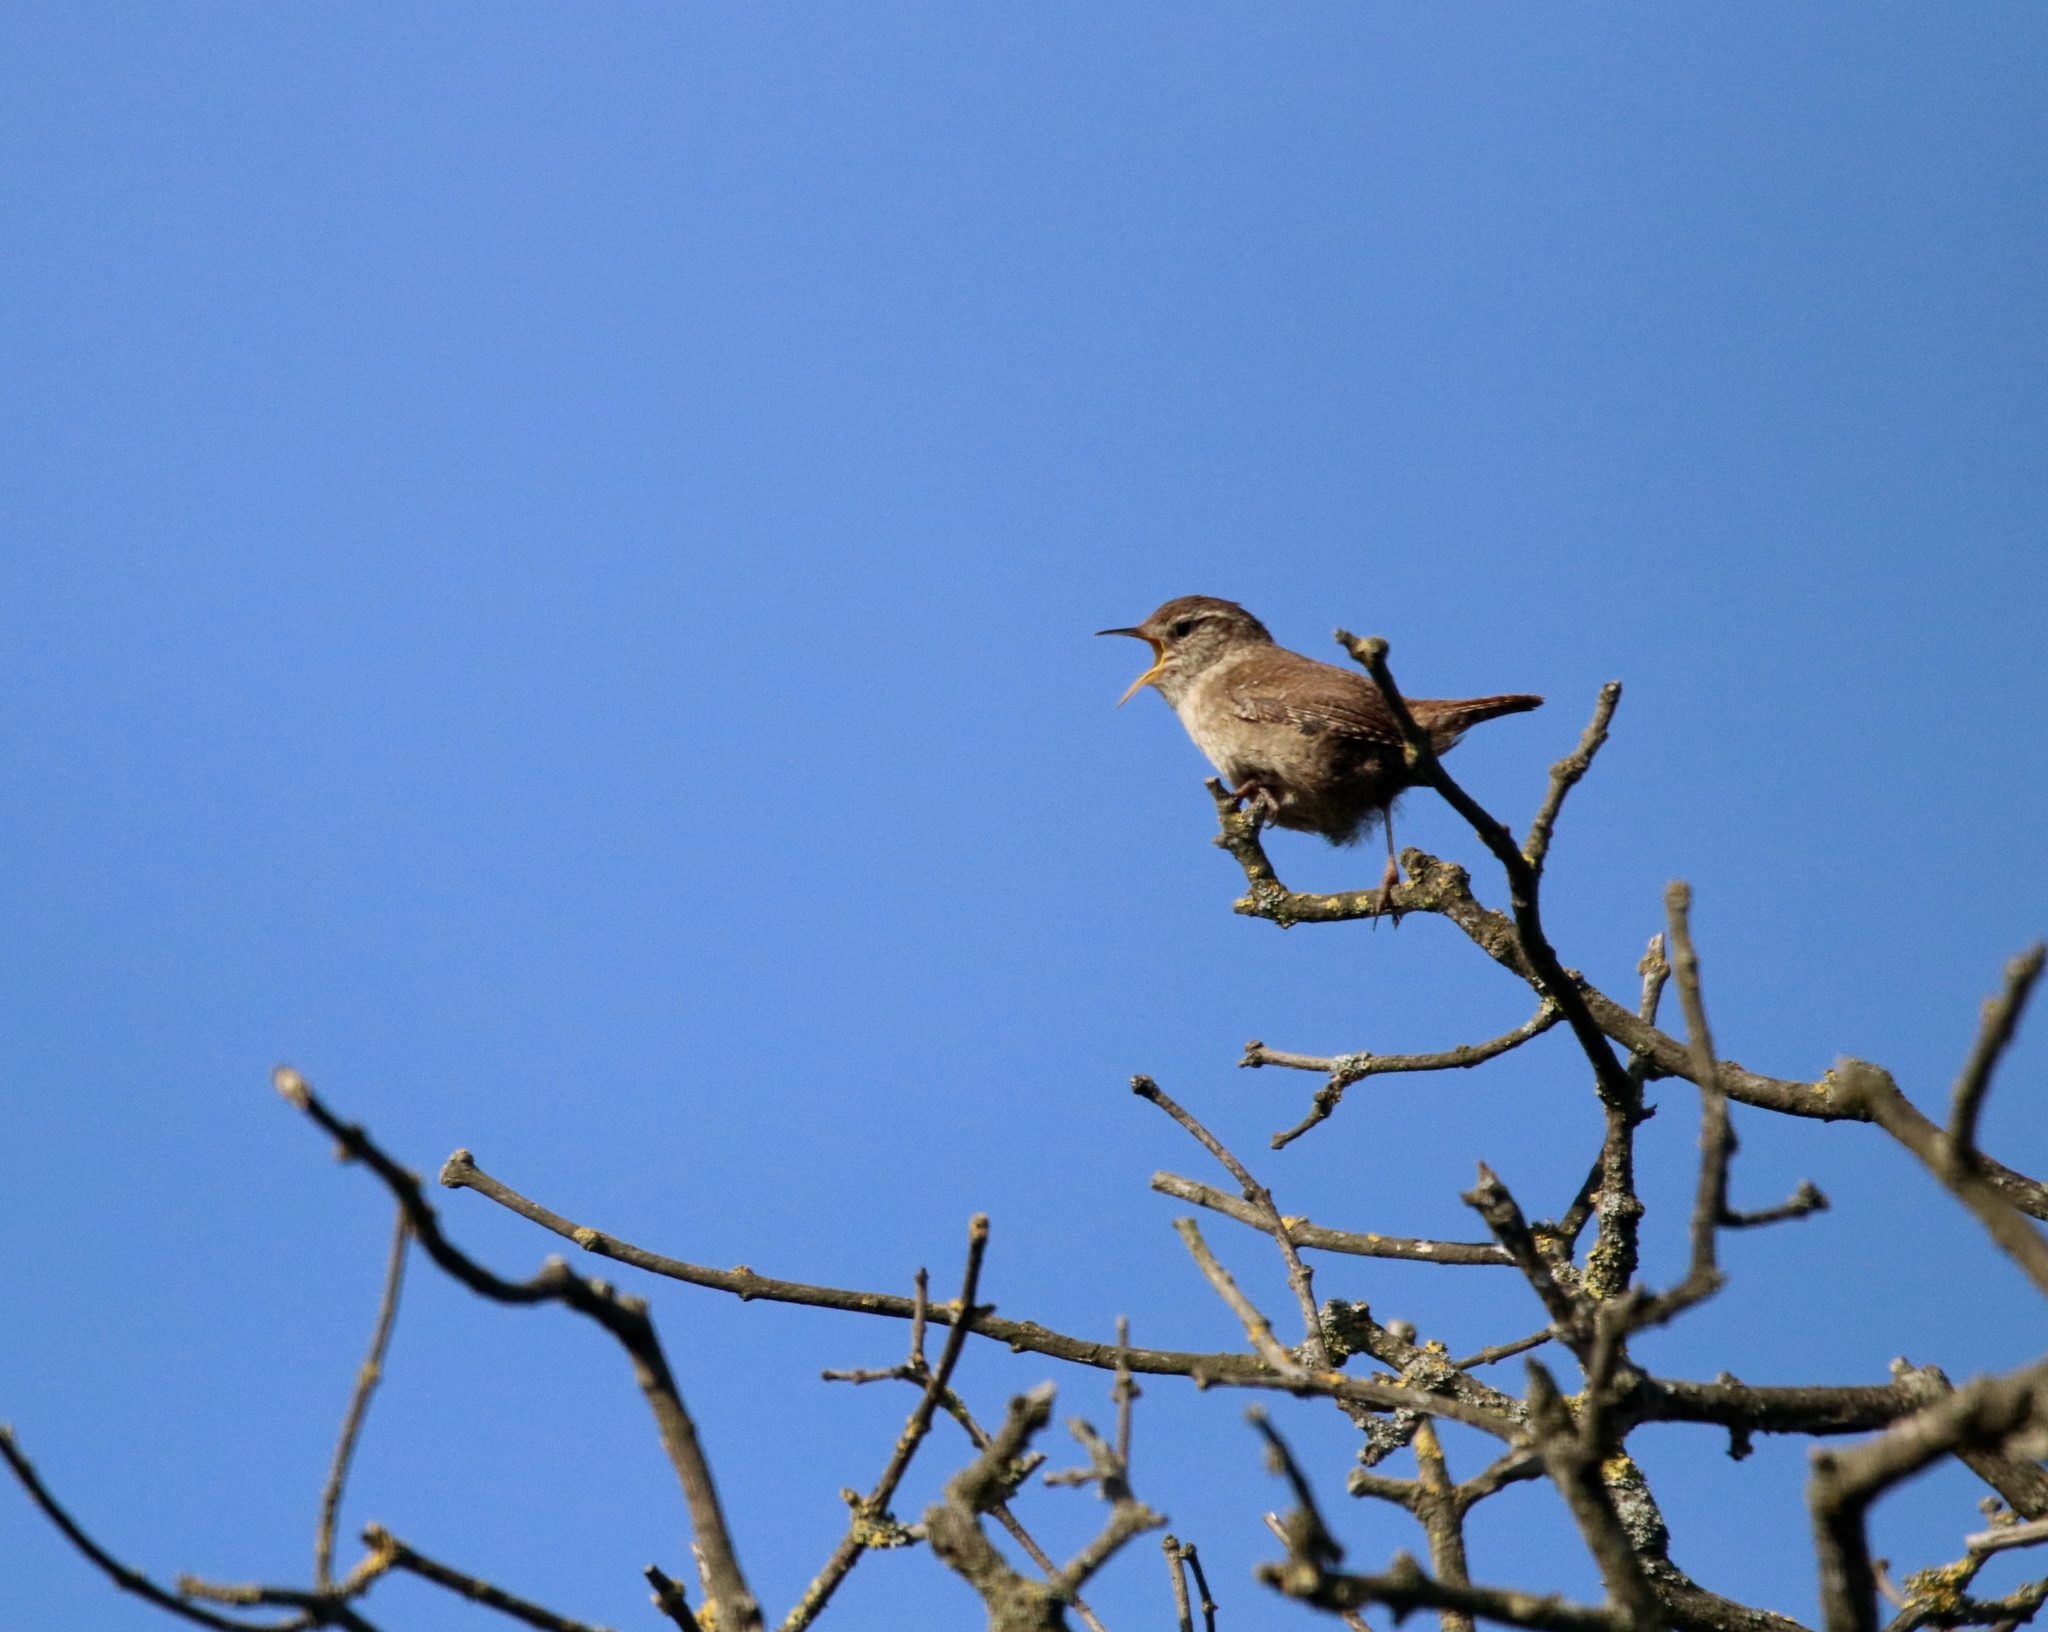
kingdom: Animalia
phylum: Chordata
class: Aves
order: Passeriformes
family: Troglodytidae
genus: Troglodytes
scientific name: Troglodytes troglodytes
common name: Eurasian wren
